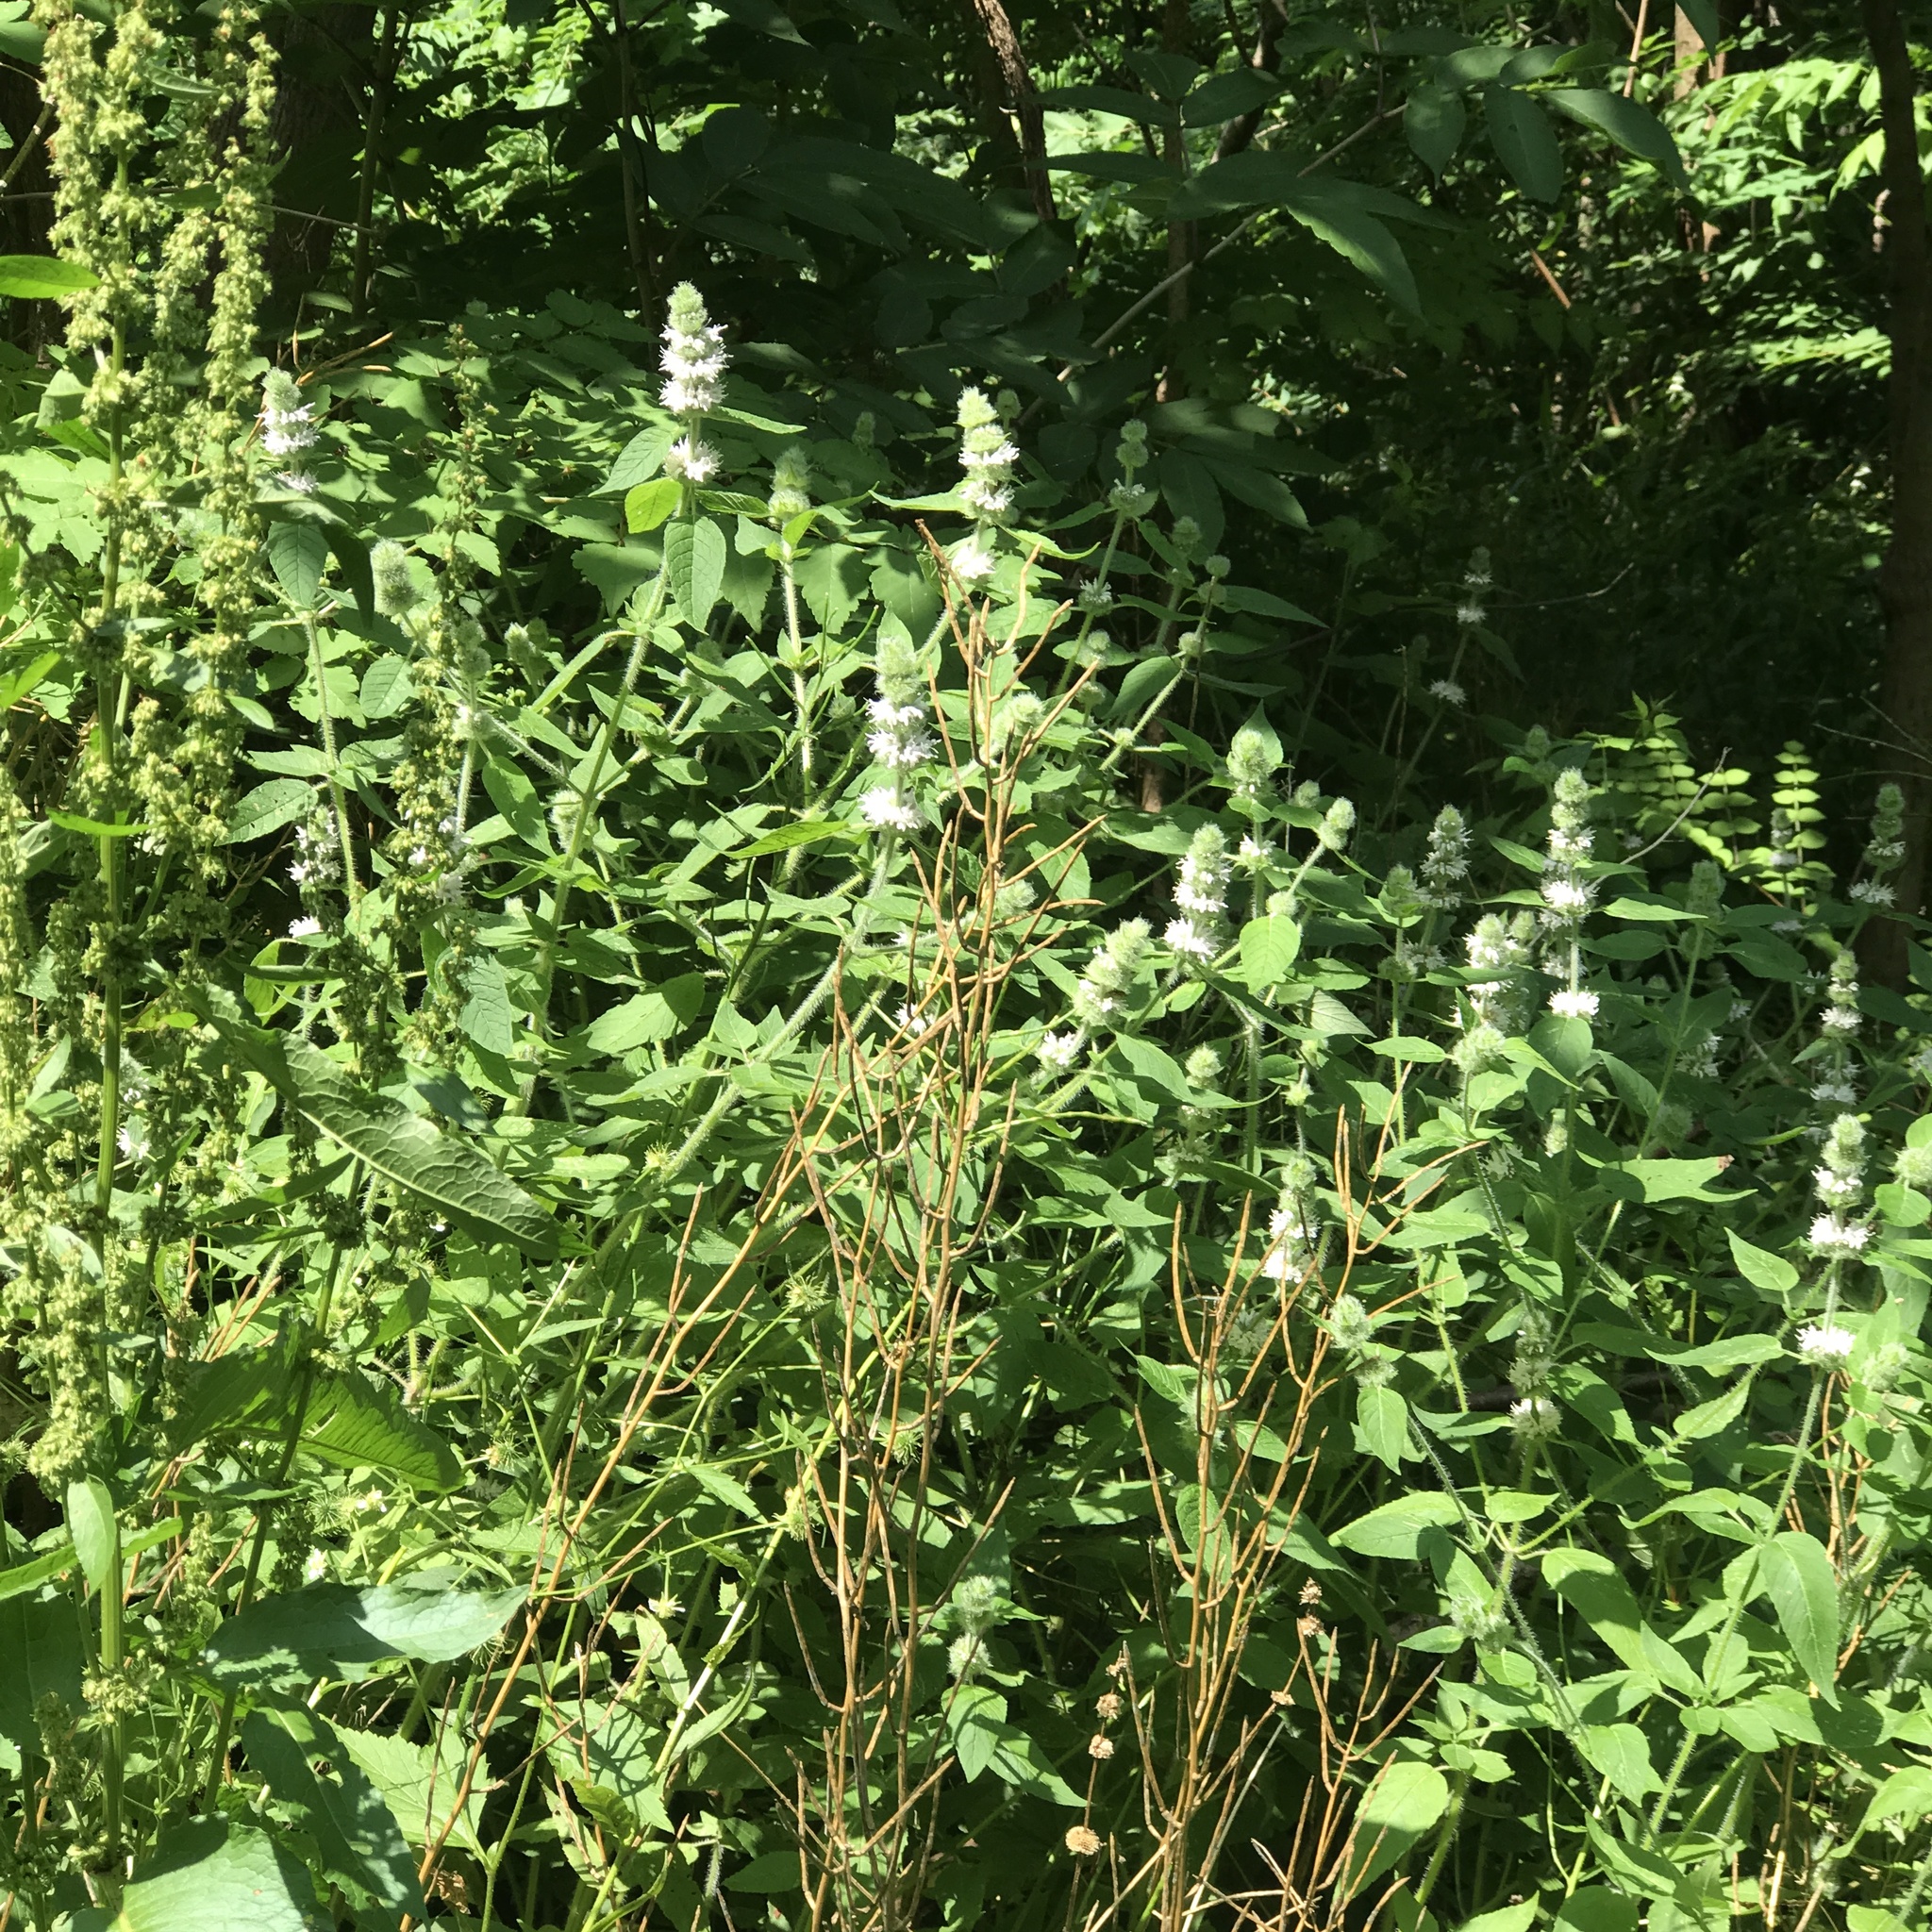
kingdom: Plantae
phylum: Tracheophyta
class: Magnoliopsida
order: Lamiales
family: Lamiaceae
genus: Blephilia
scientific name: Blephilia hirsuta
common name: Hairy blephilia
